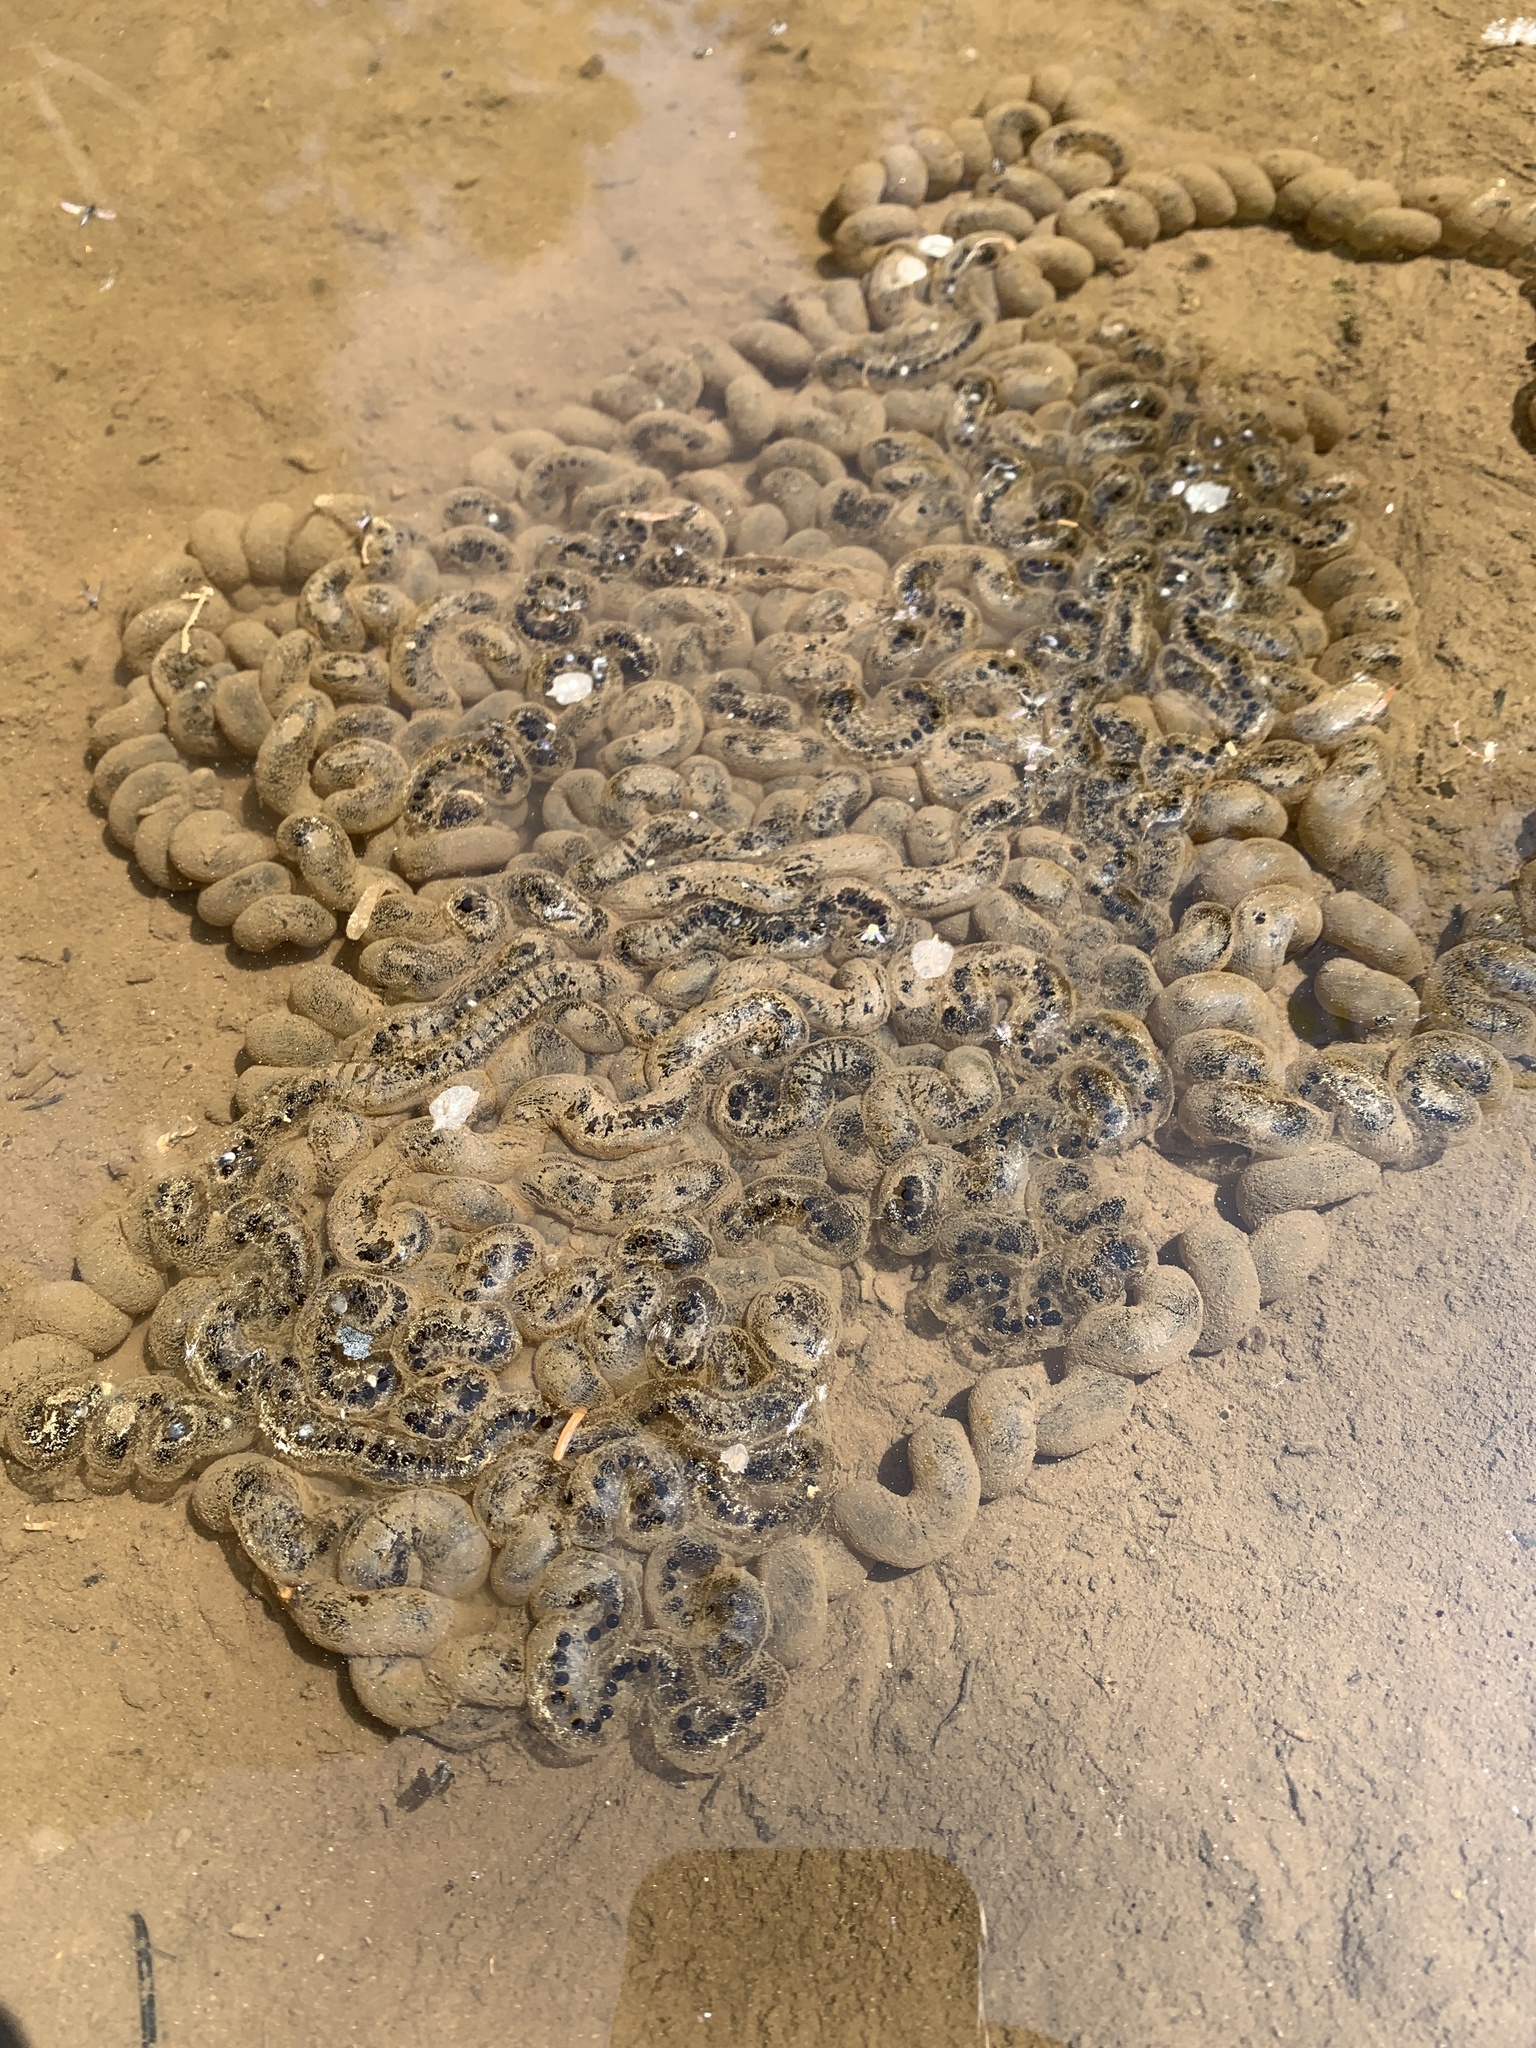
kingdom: Animalia
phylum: Chordata
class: Amphibia
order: Anura
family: Bufonidae
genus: Anaxyrus
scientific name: Anaxyrus americanus
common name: American toad
